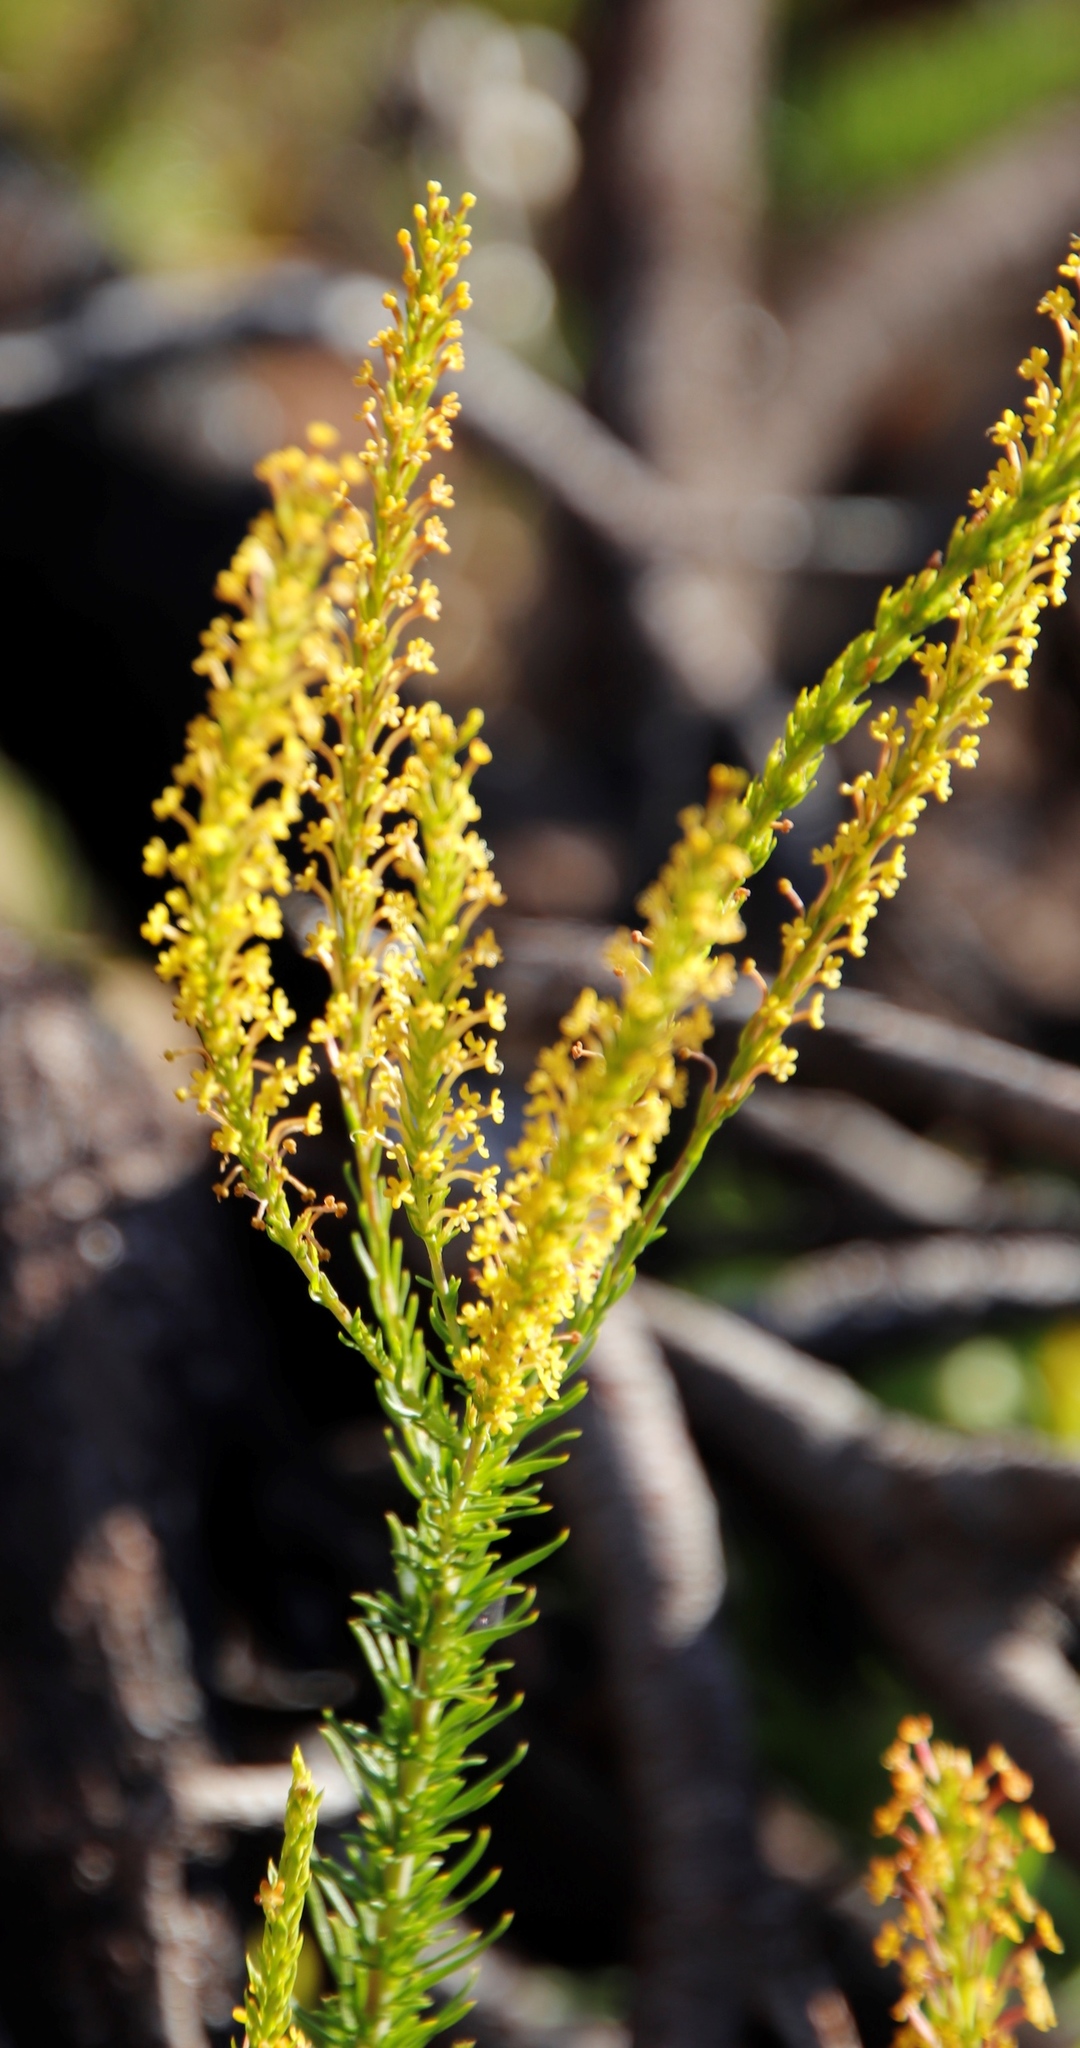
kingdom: Plantae
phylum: Tracheophyta
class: Magnoliopsida
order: Lamiales
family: Scrophulariaceae
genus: Microdon
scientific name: Microdon dubius
